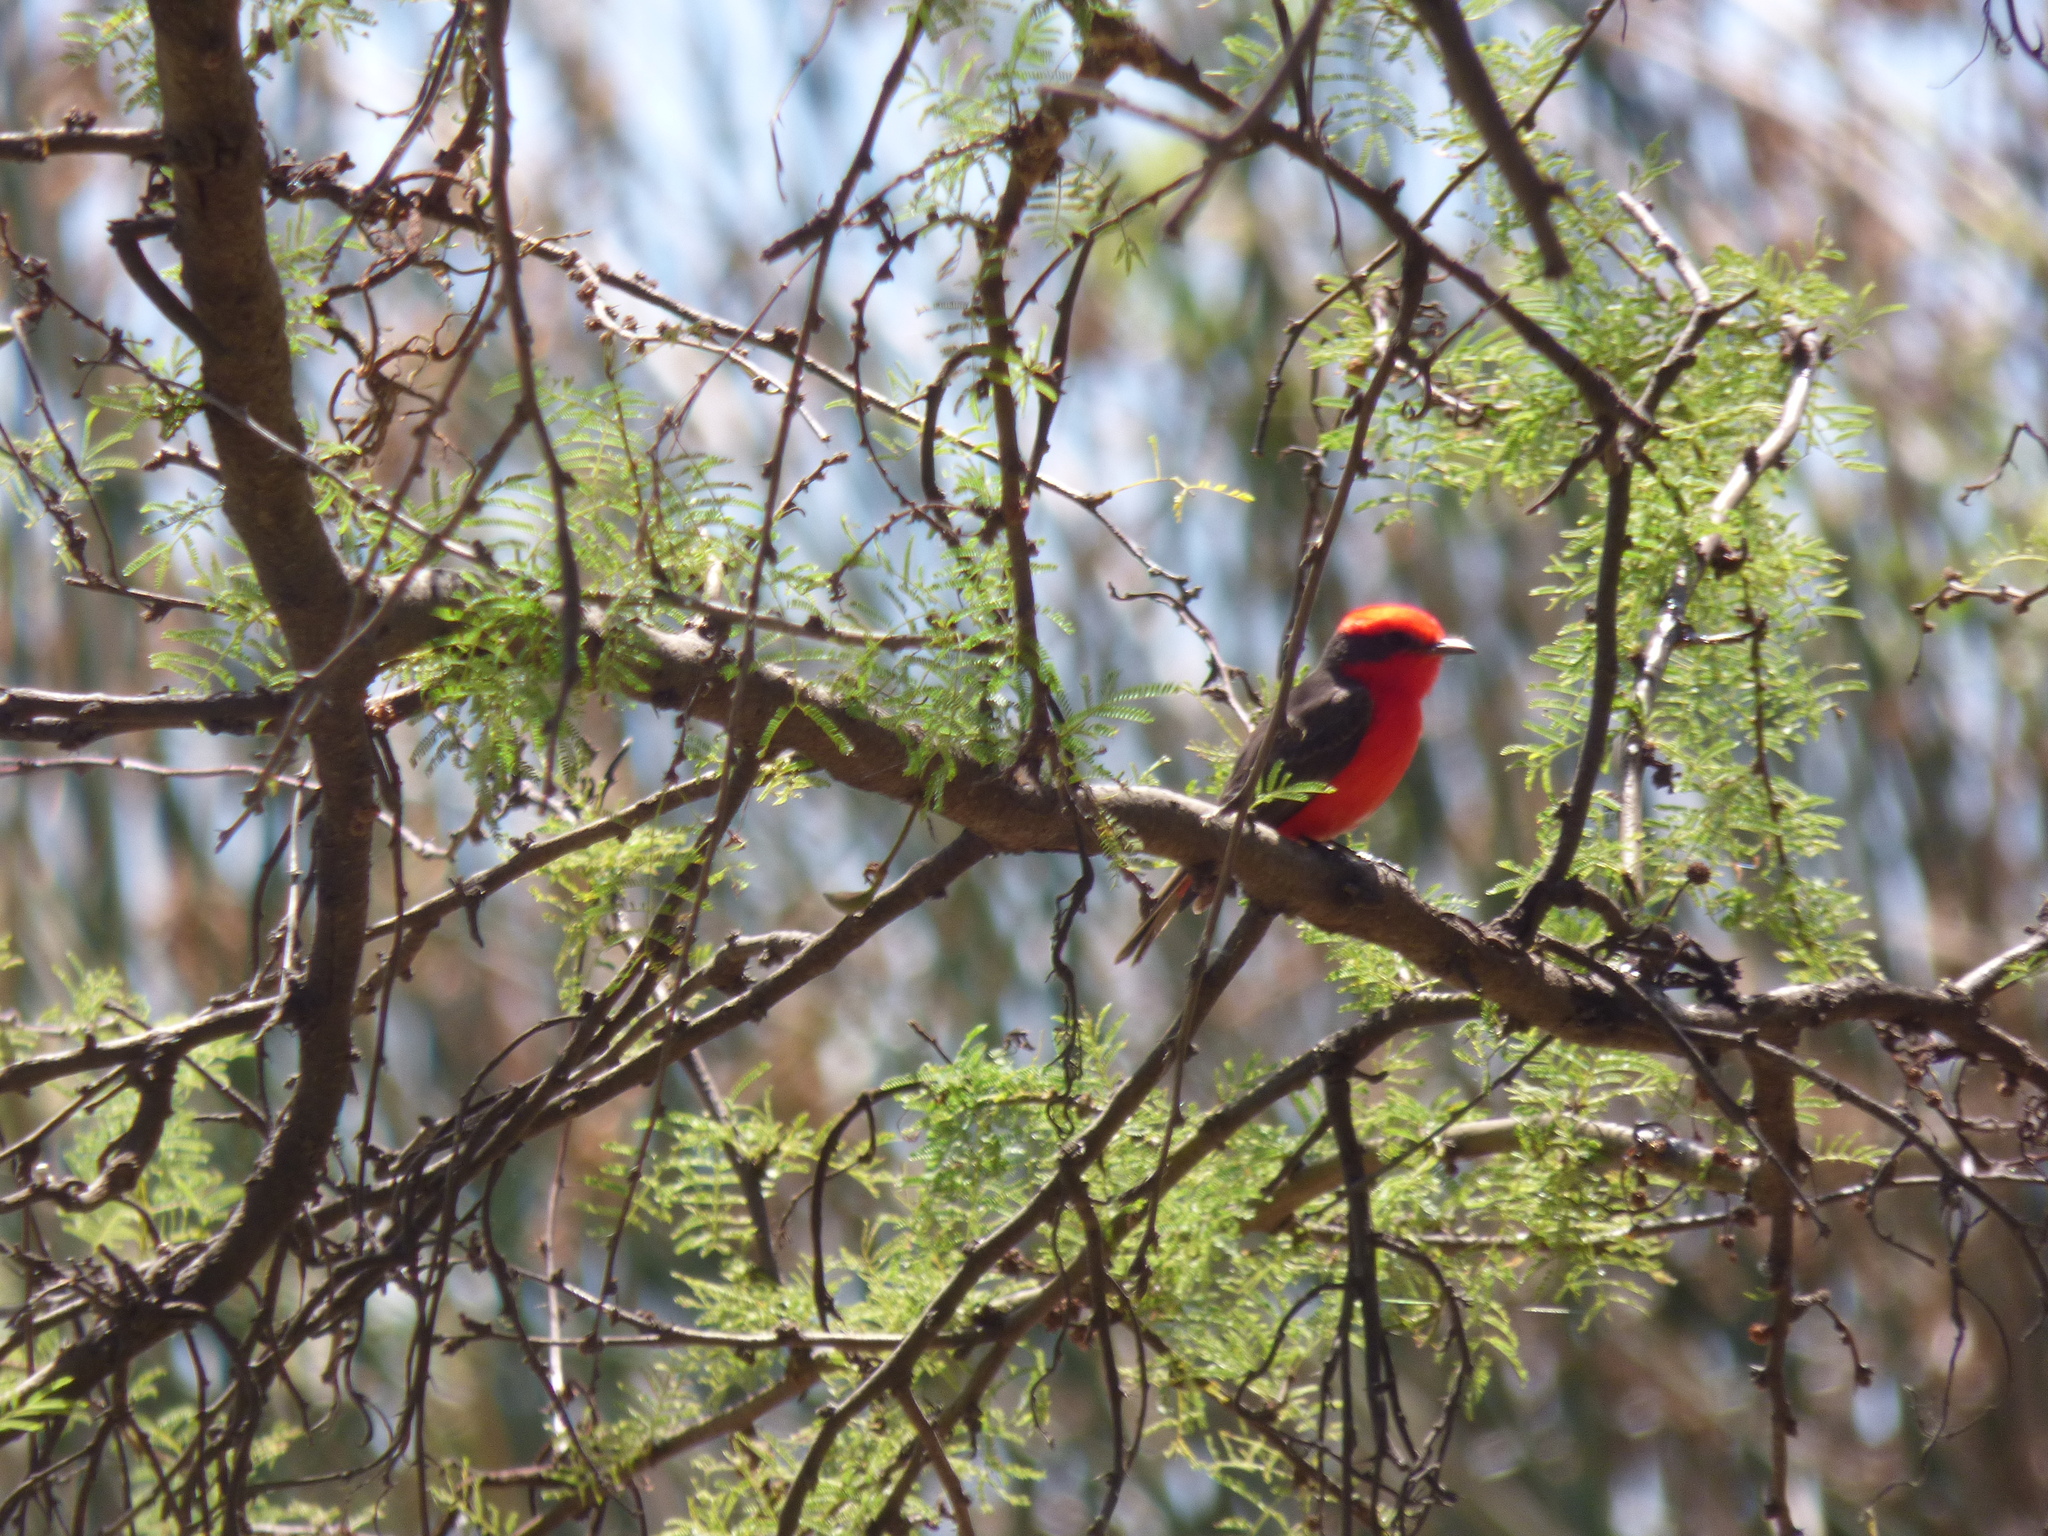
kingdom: Animalia
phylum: Chordata
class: Aves
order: Passeriformes
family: Tyrannidae
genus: Pyrocephalus
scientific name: Pyrocephalus rubinus
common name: Vermilion flycatcher
